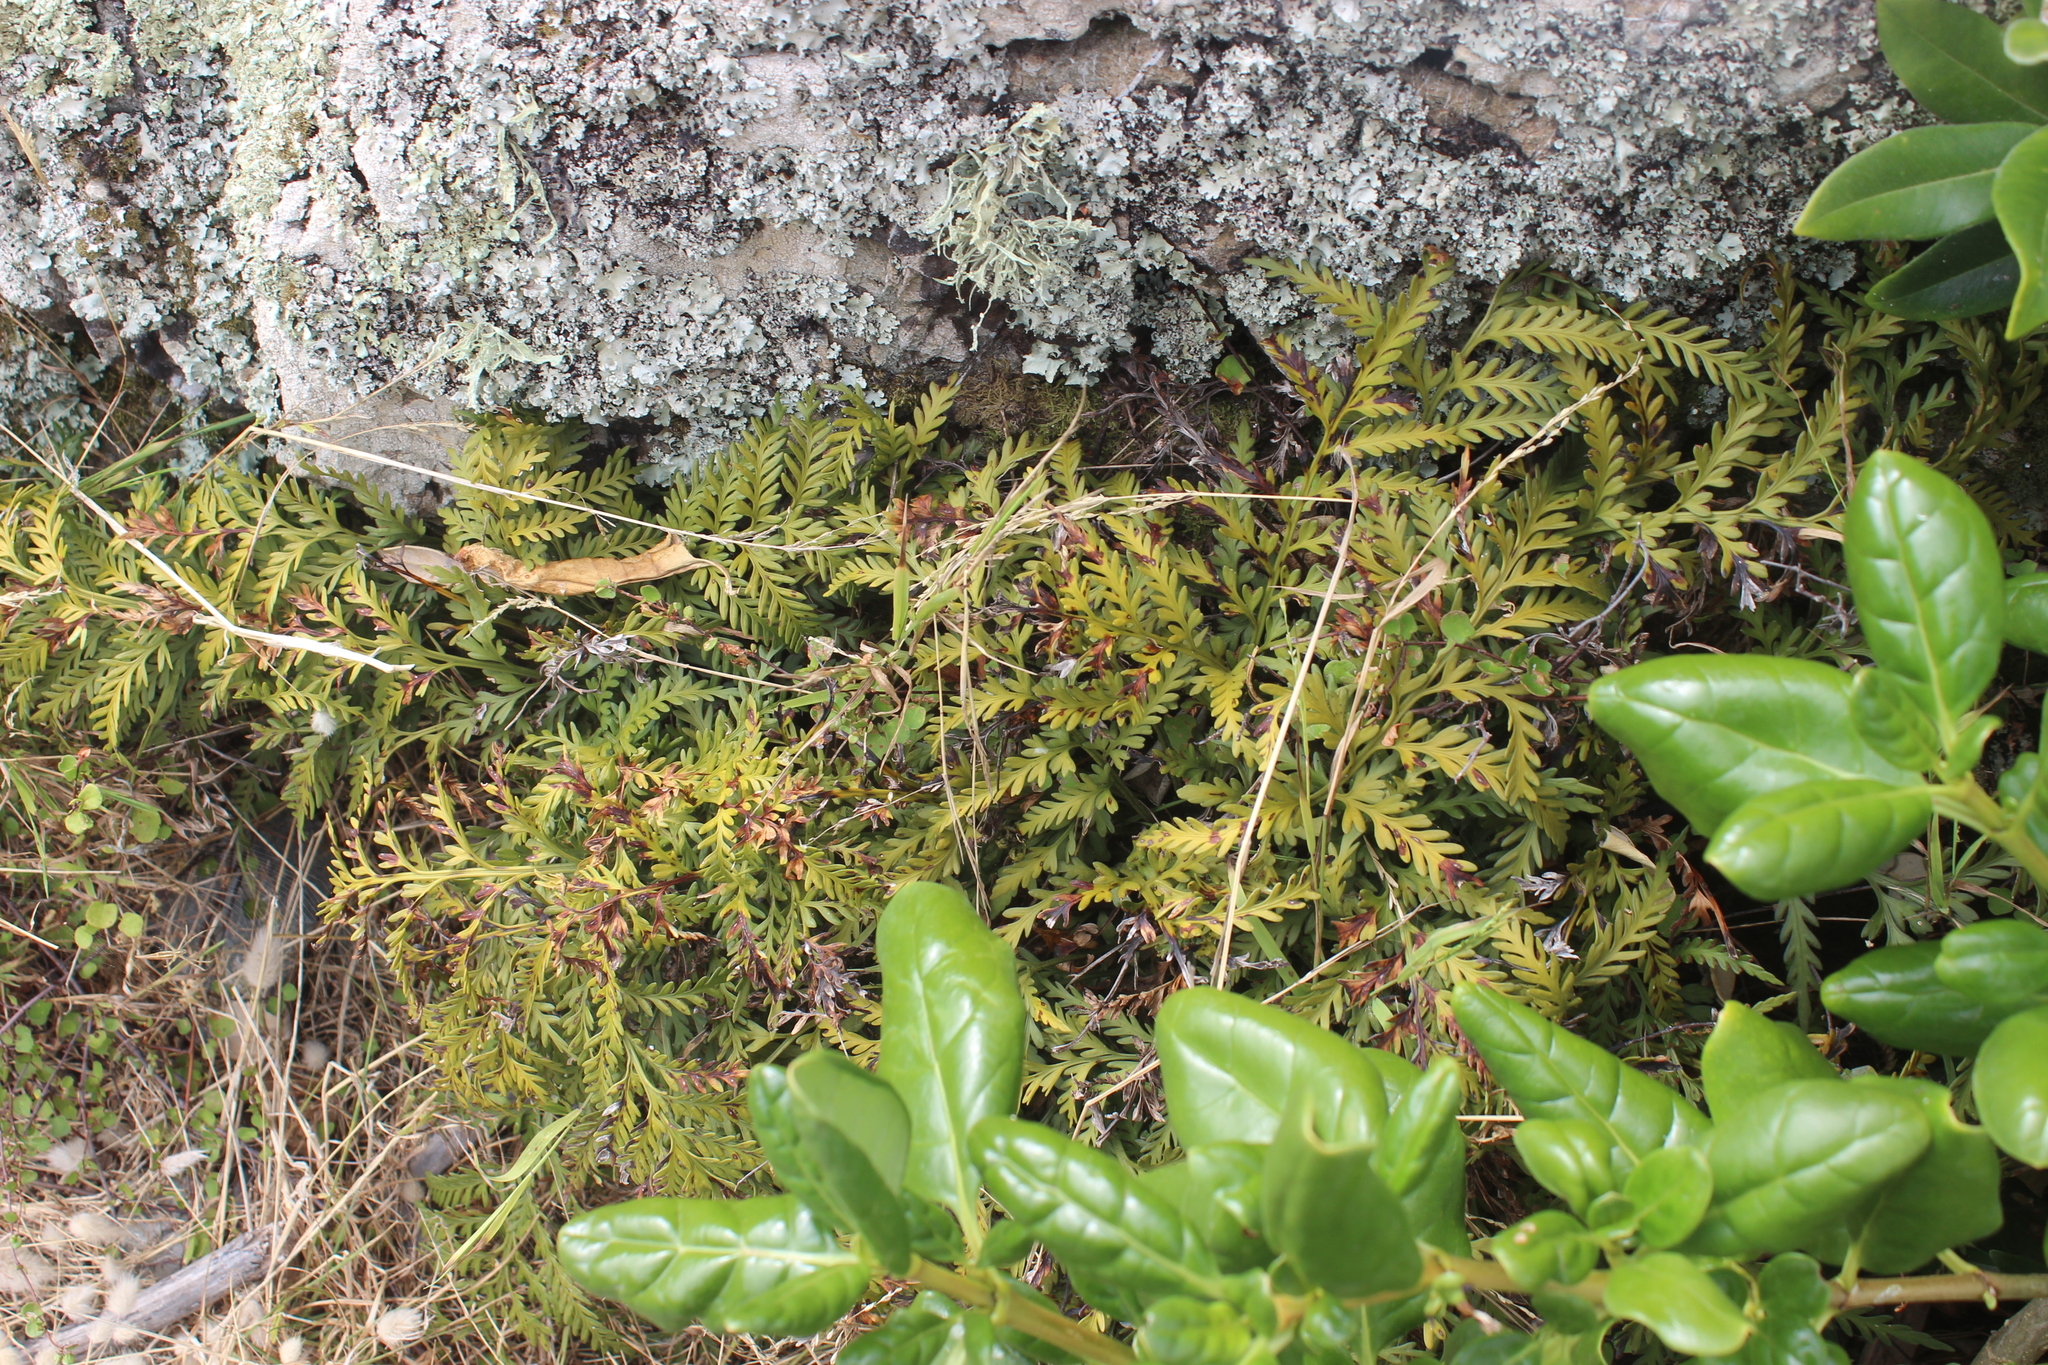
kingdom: Plantae
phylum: Tracheophyta
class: Polypodiopsida
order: Polypodiales
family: Aspleniaceae
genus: Asplenium
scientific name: Asplenium appendiculatum
